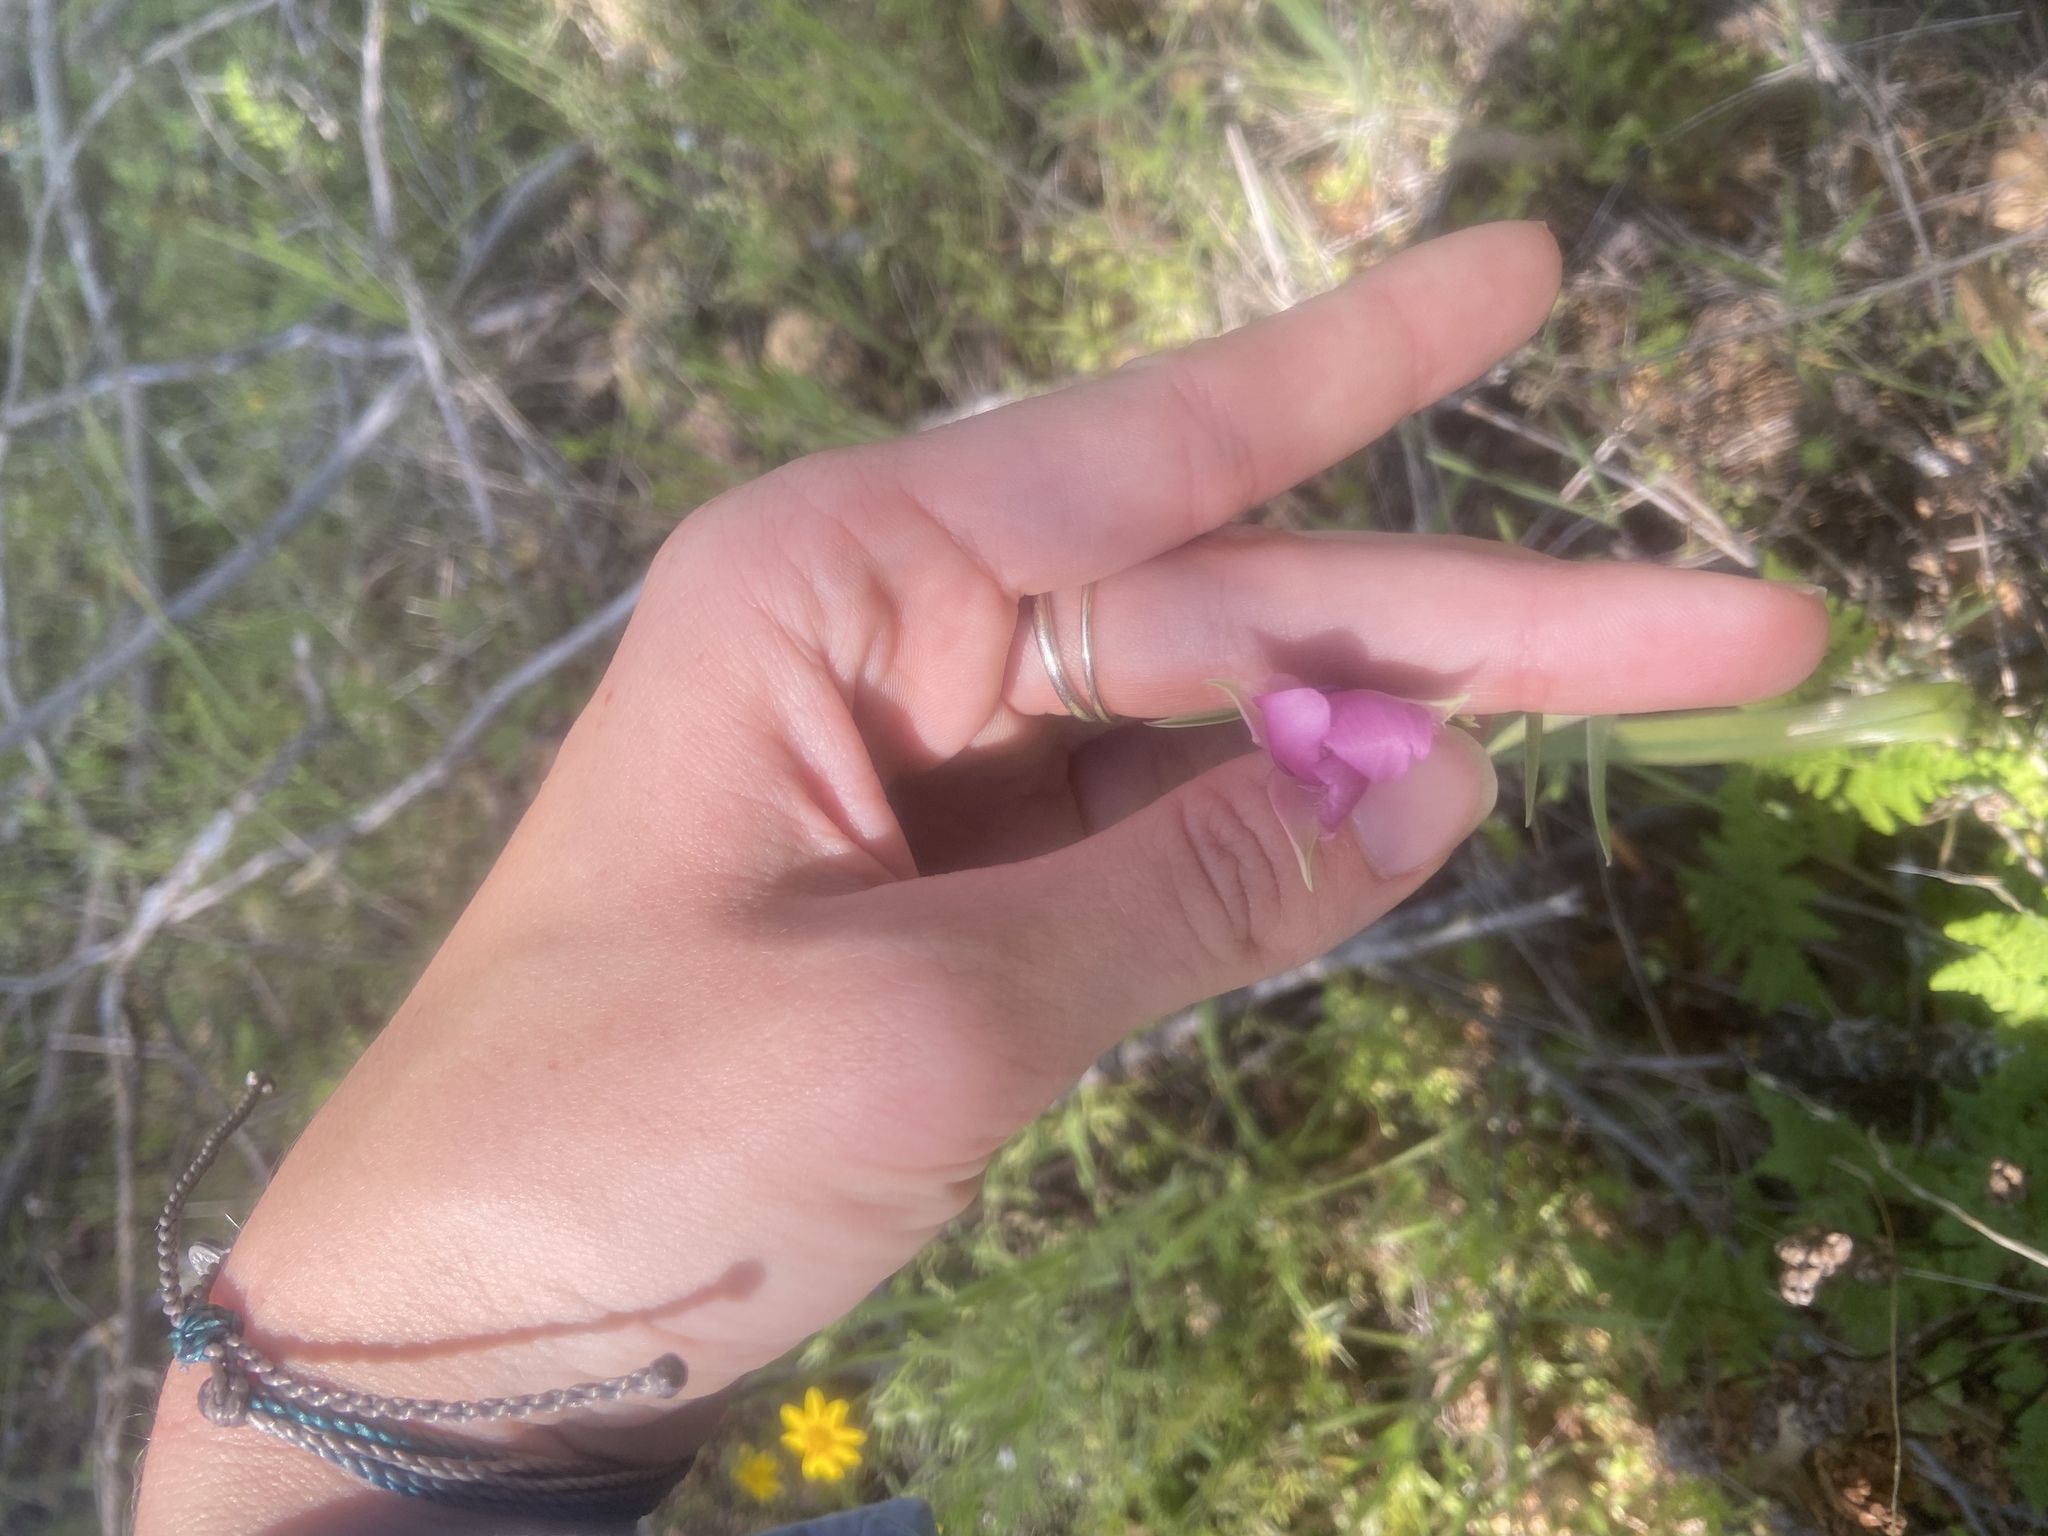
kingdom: Plantae
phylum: Tracheophyta
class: Liliopsida
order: Liliales
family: Liliaceae
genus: Calochortus
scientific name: Calochortus amoenus
